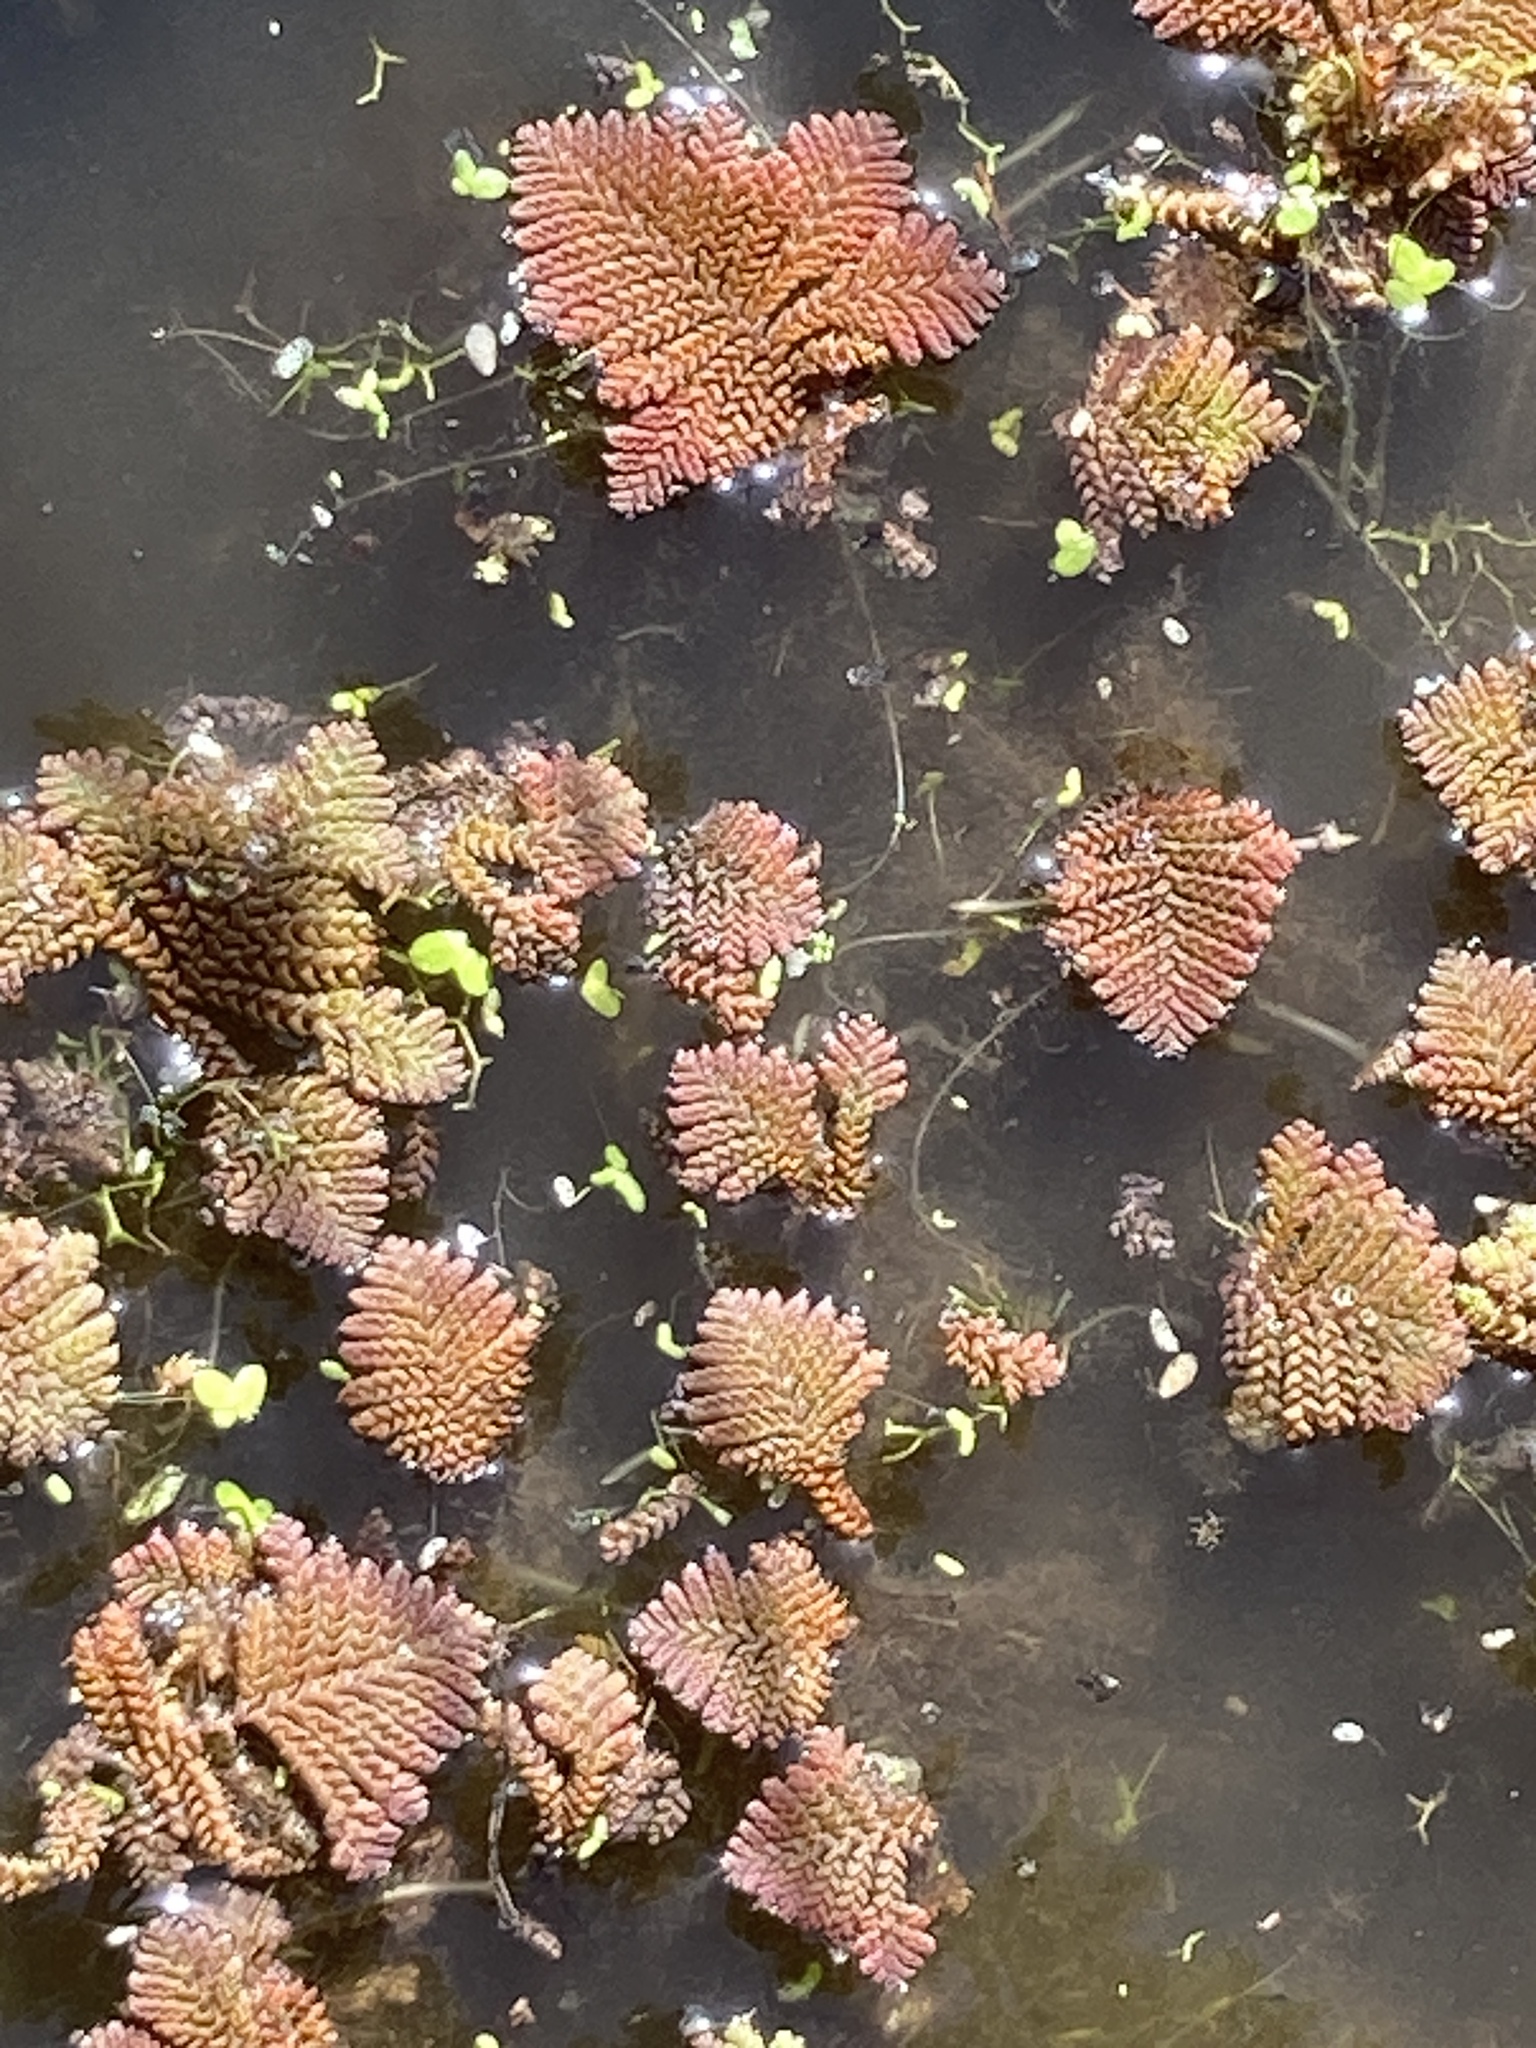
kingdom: Plantae
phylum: Tracheophyta
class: Polypodiopsida
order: Salviniales
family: Salviniaceae
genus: Azolla
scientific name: Azolla pinnata
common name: Ferny azolla
